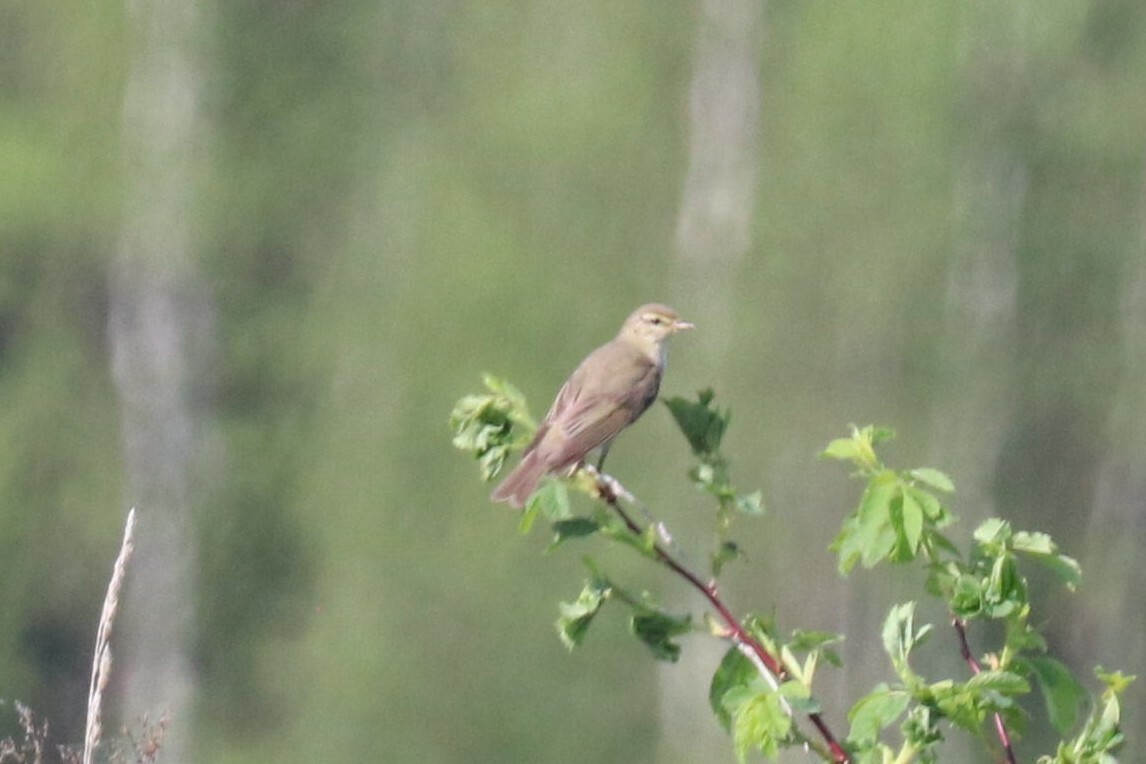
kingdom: Animalia
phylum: Chordata
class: Aves
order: Passeriformes
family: Phylloscopidae
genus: Phylloscopus
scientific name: Phylloscopus trochilus
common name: Willow warbler
